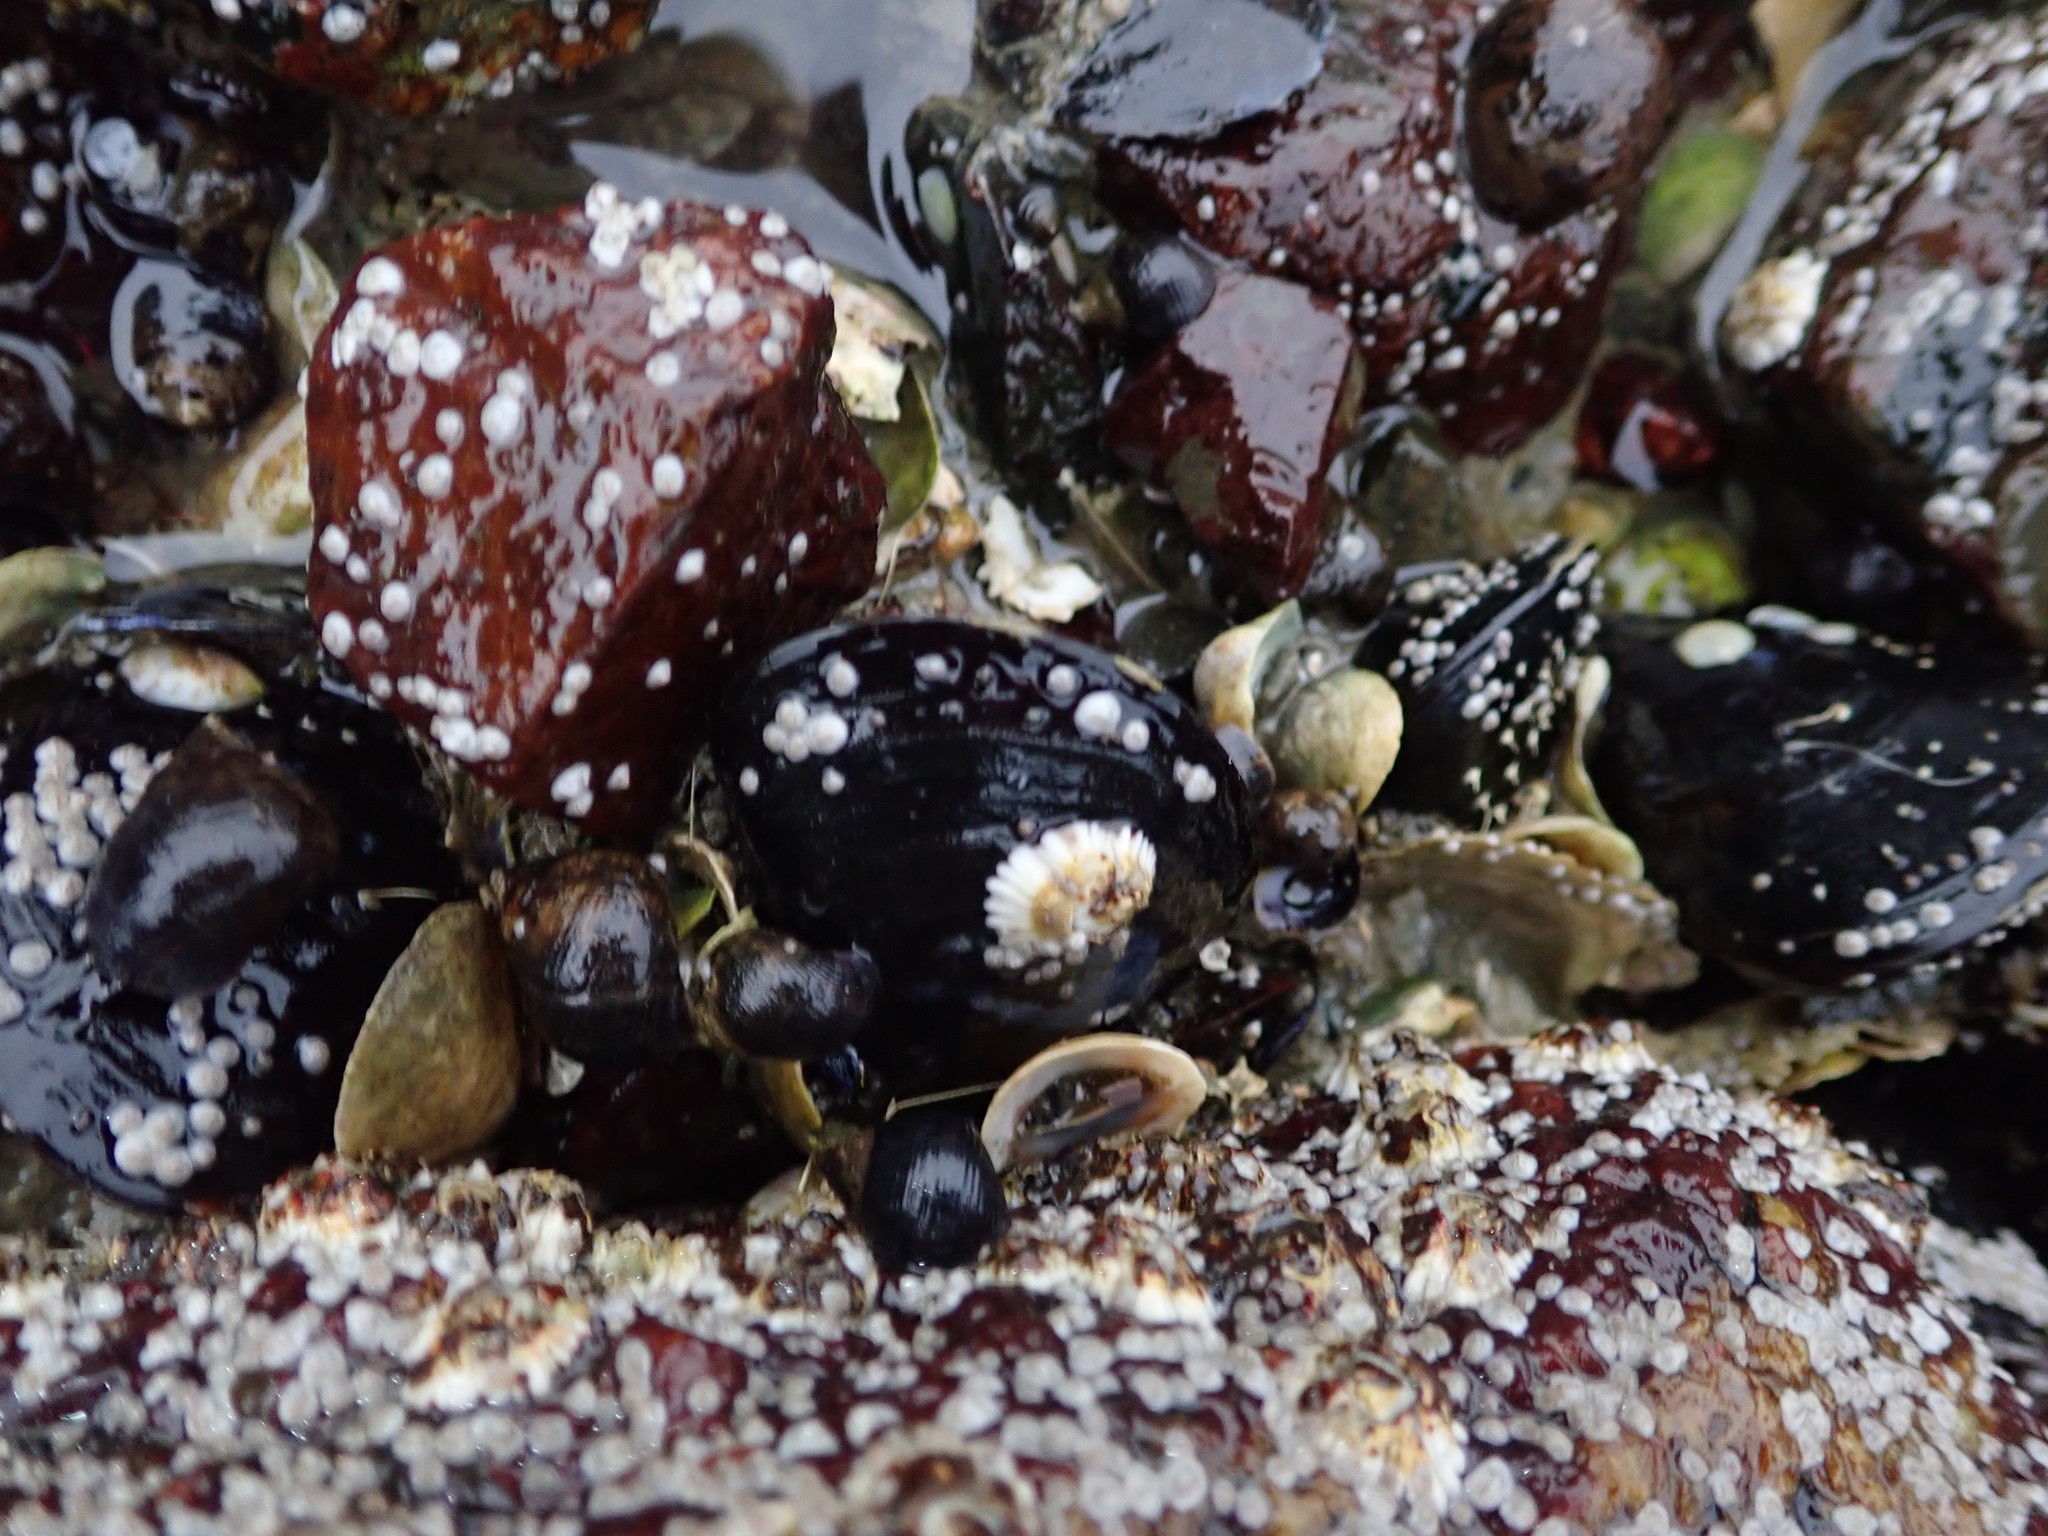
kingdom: Animalia
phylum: Mollusca
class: Bivalvia
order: Mytilida
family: Mytilidae
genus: Mytilus
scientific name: Mytilus edulis
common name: Blue mussel
